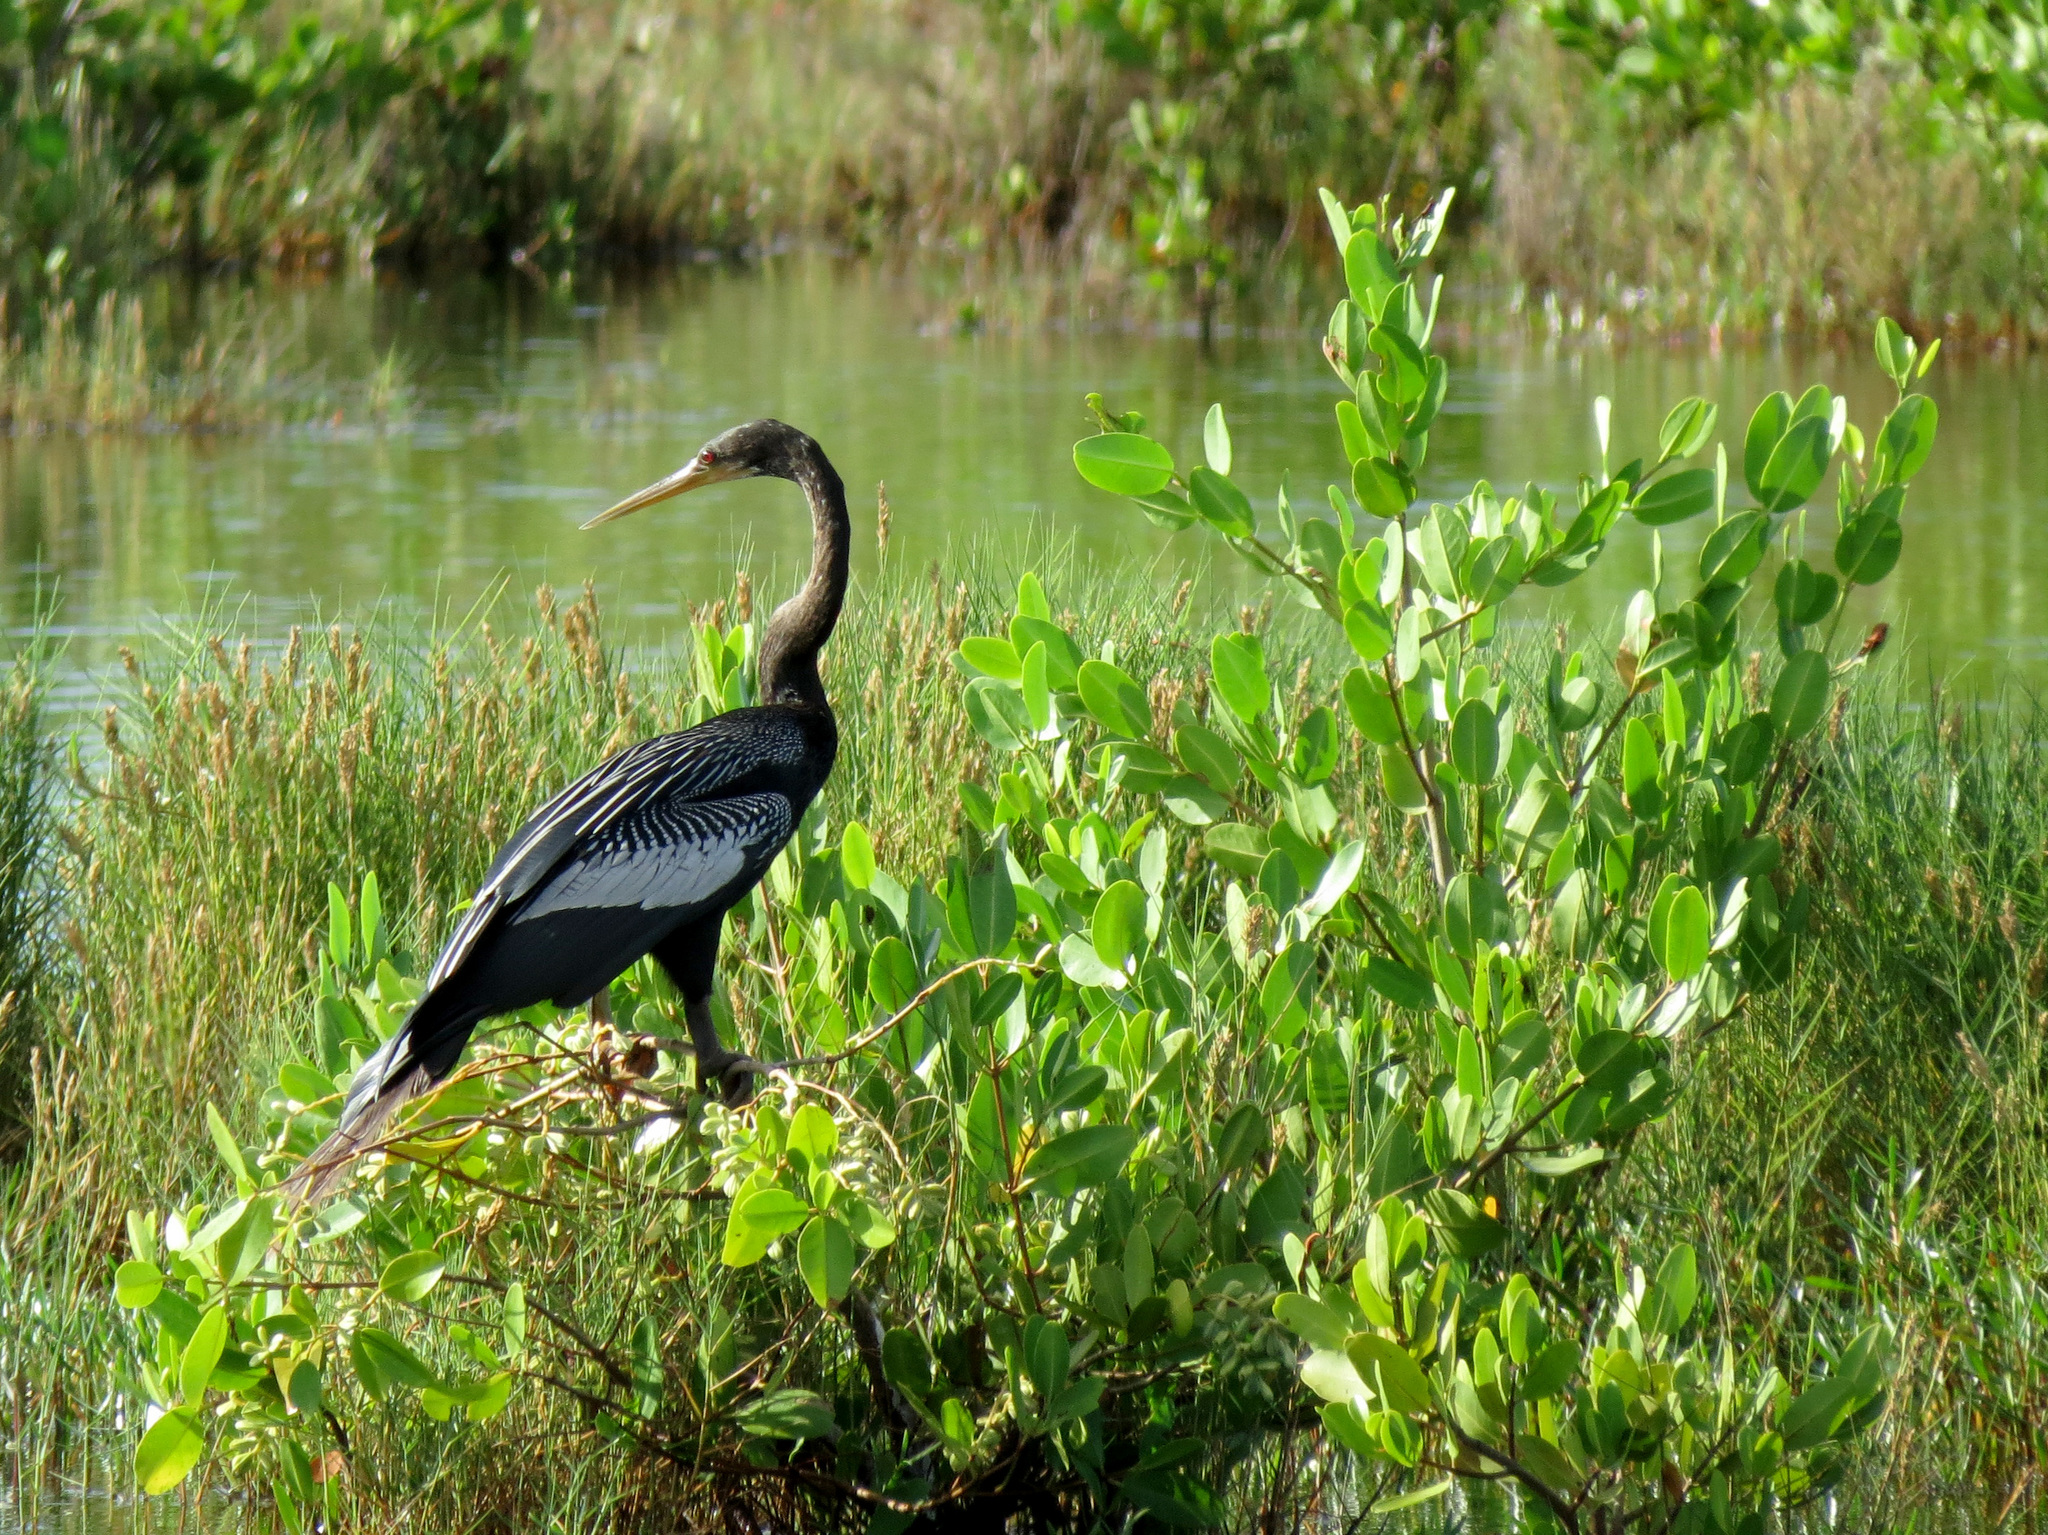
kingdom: Animalia
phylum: Chordata
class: Aves
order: Suliformes
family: Anhingidae
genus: Anhinga
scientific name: Anhinga anhinga
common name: Anhinga
